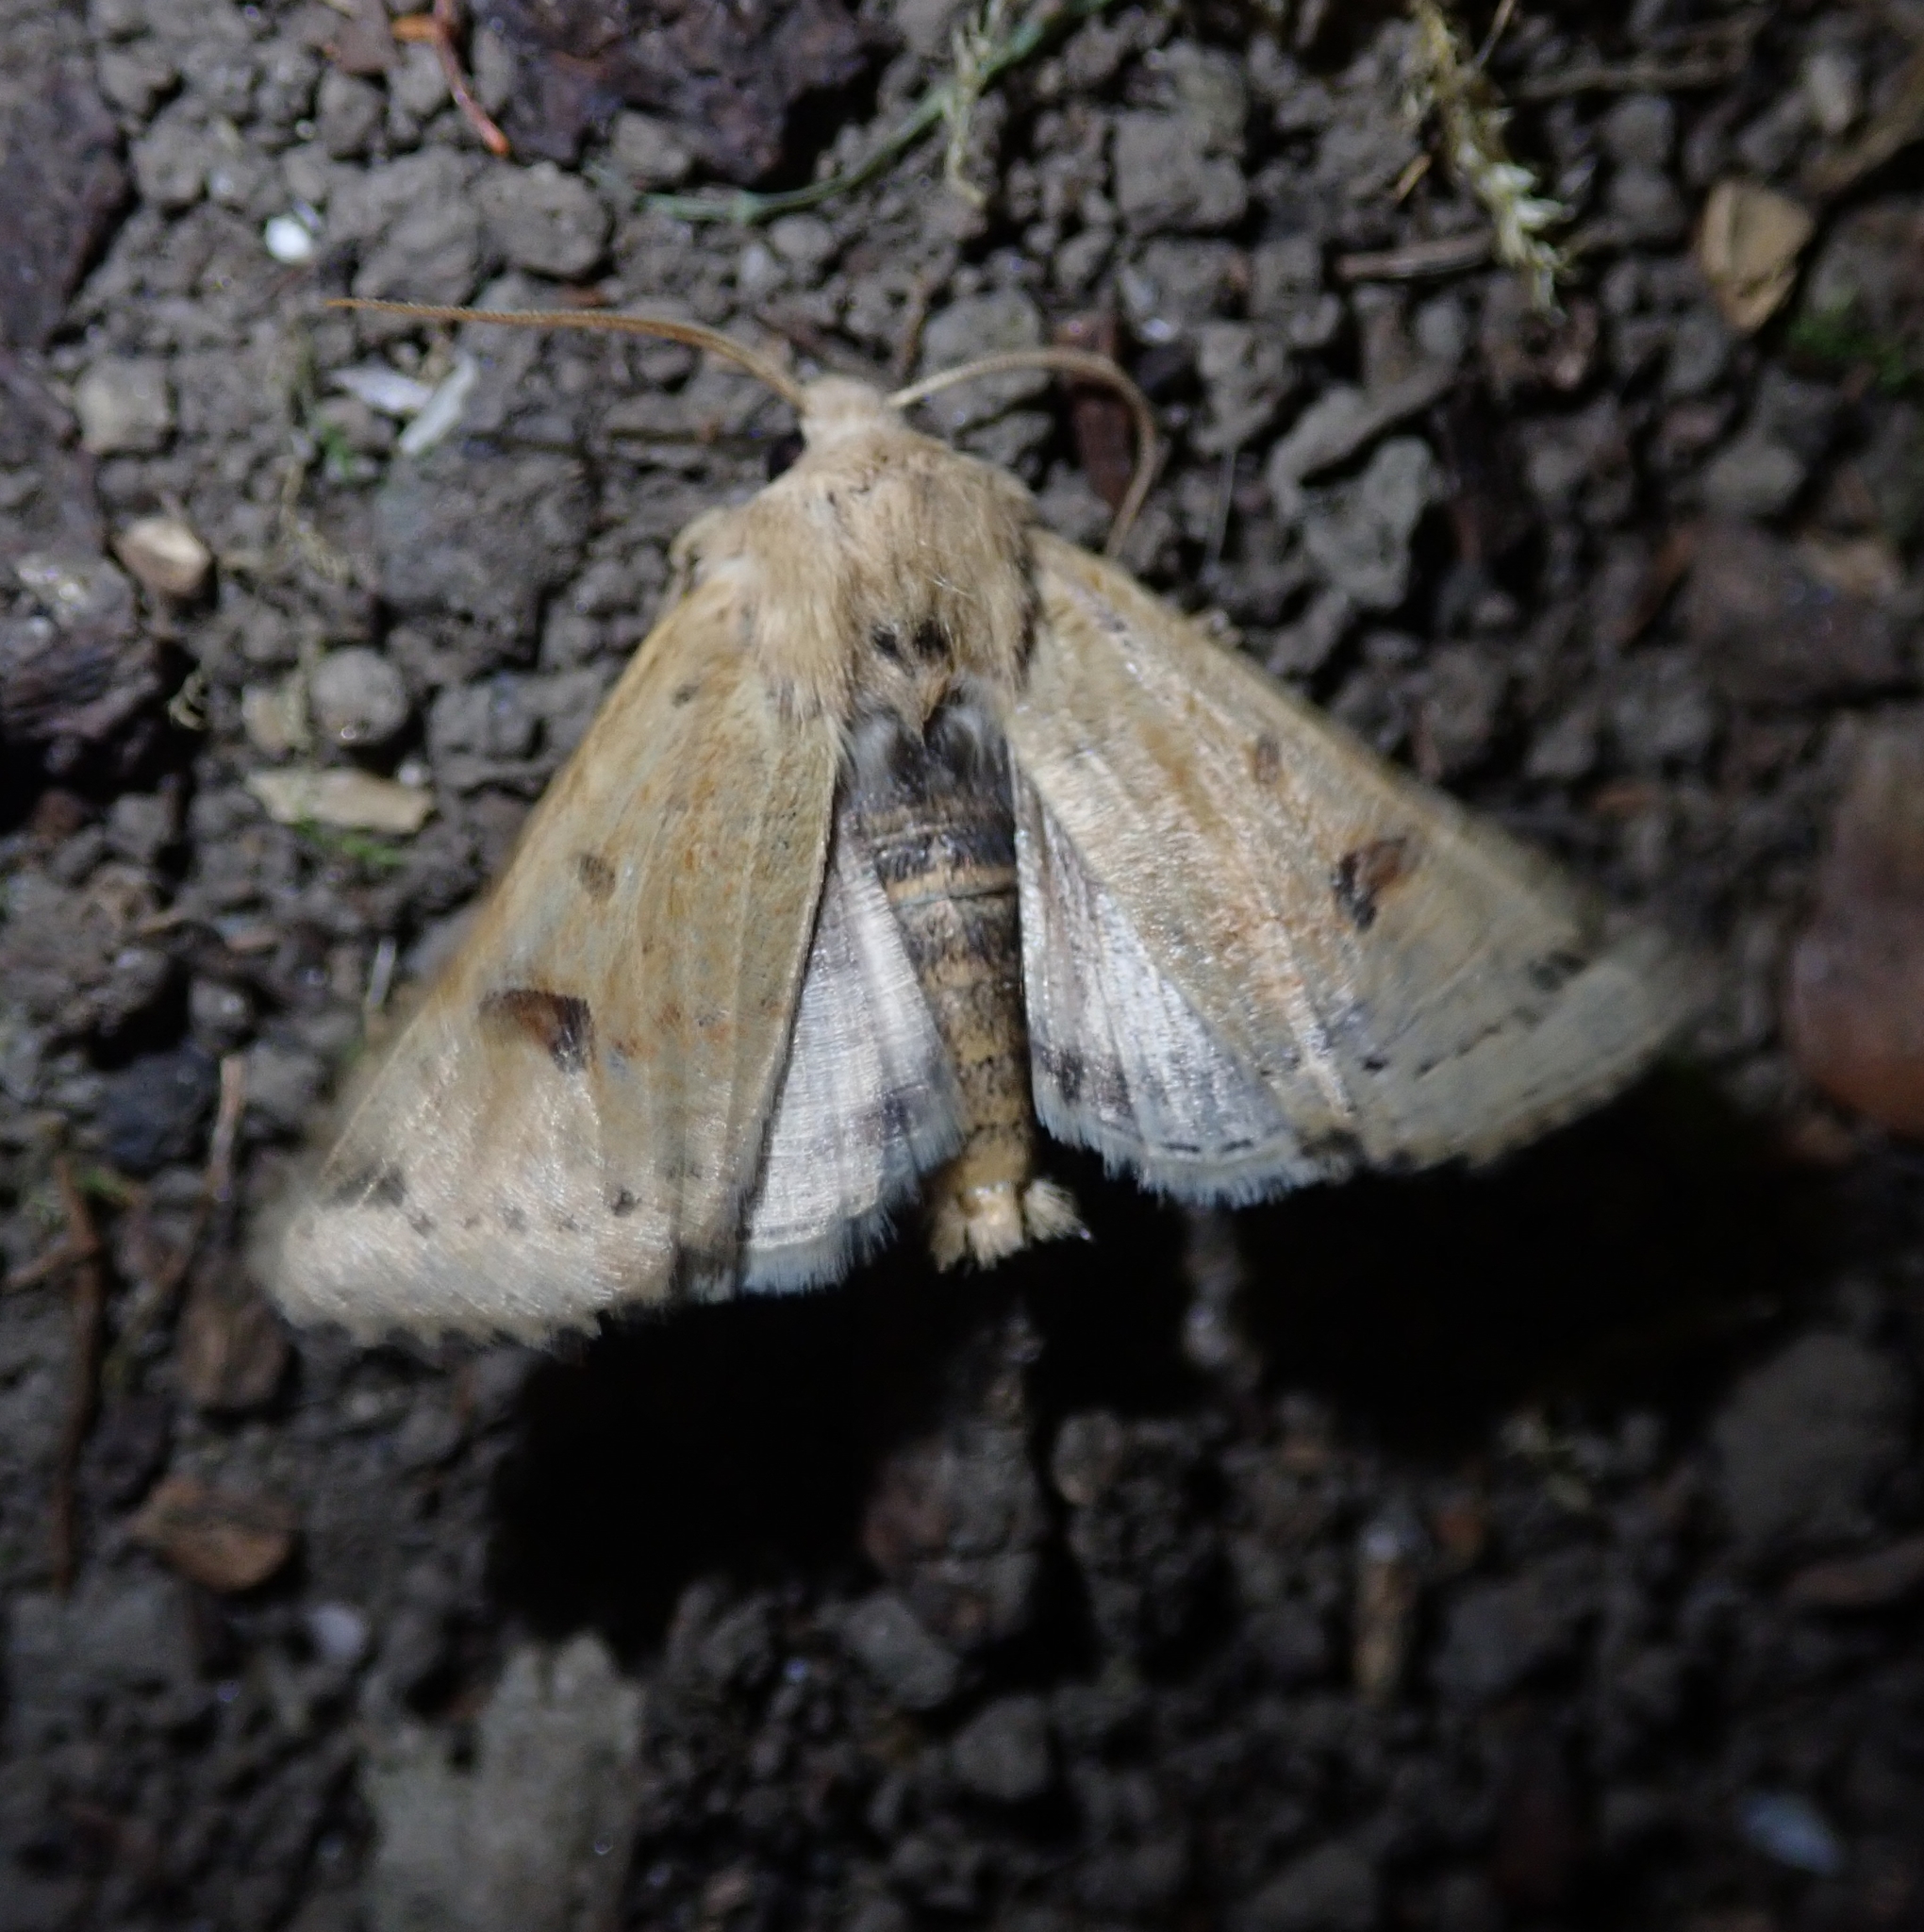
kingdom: Animalia
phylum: Arthropoda
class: Insecta
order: Lepidoptera
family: Noctuidae
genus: Agrochola
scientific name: Agrochola lunosa
